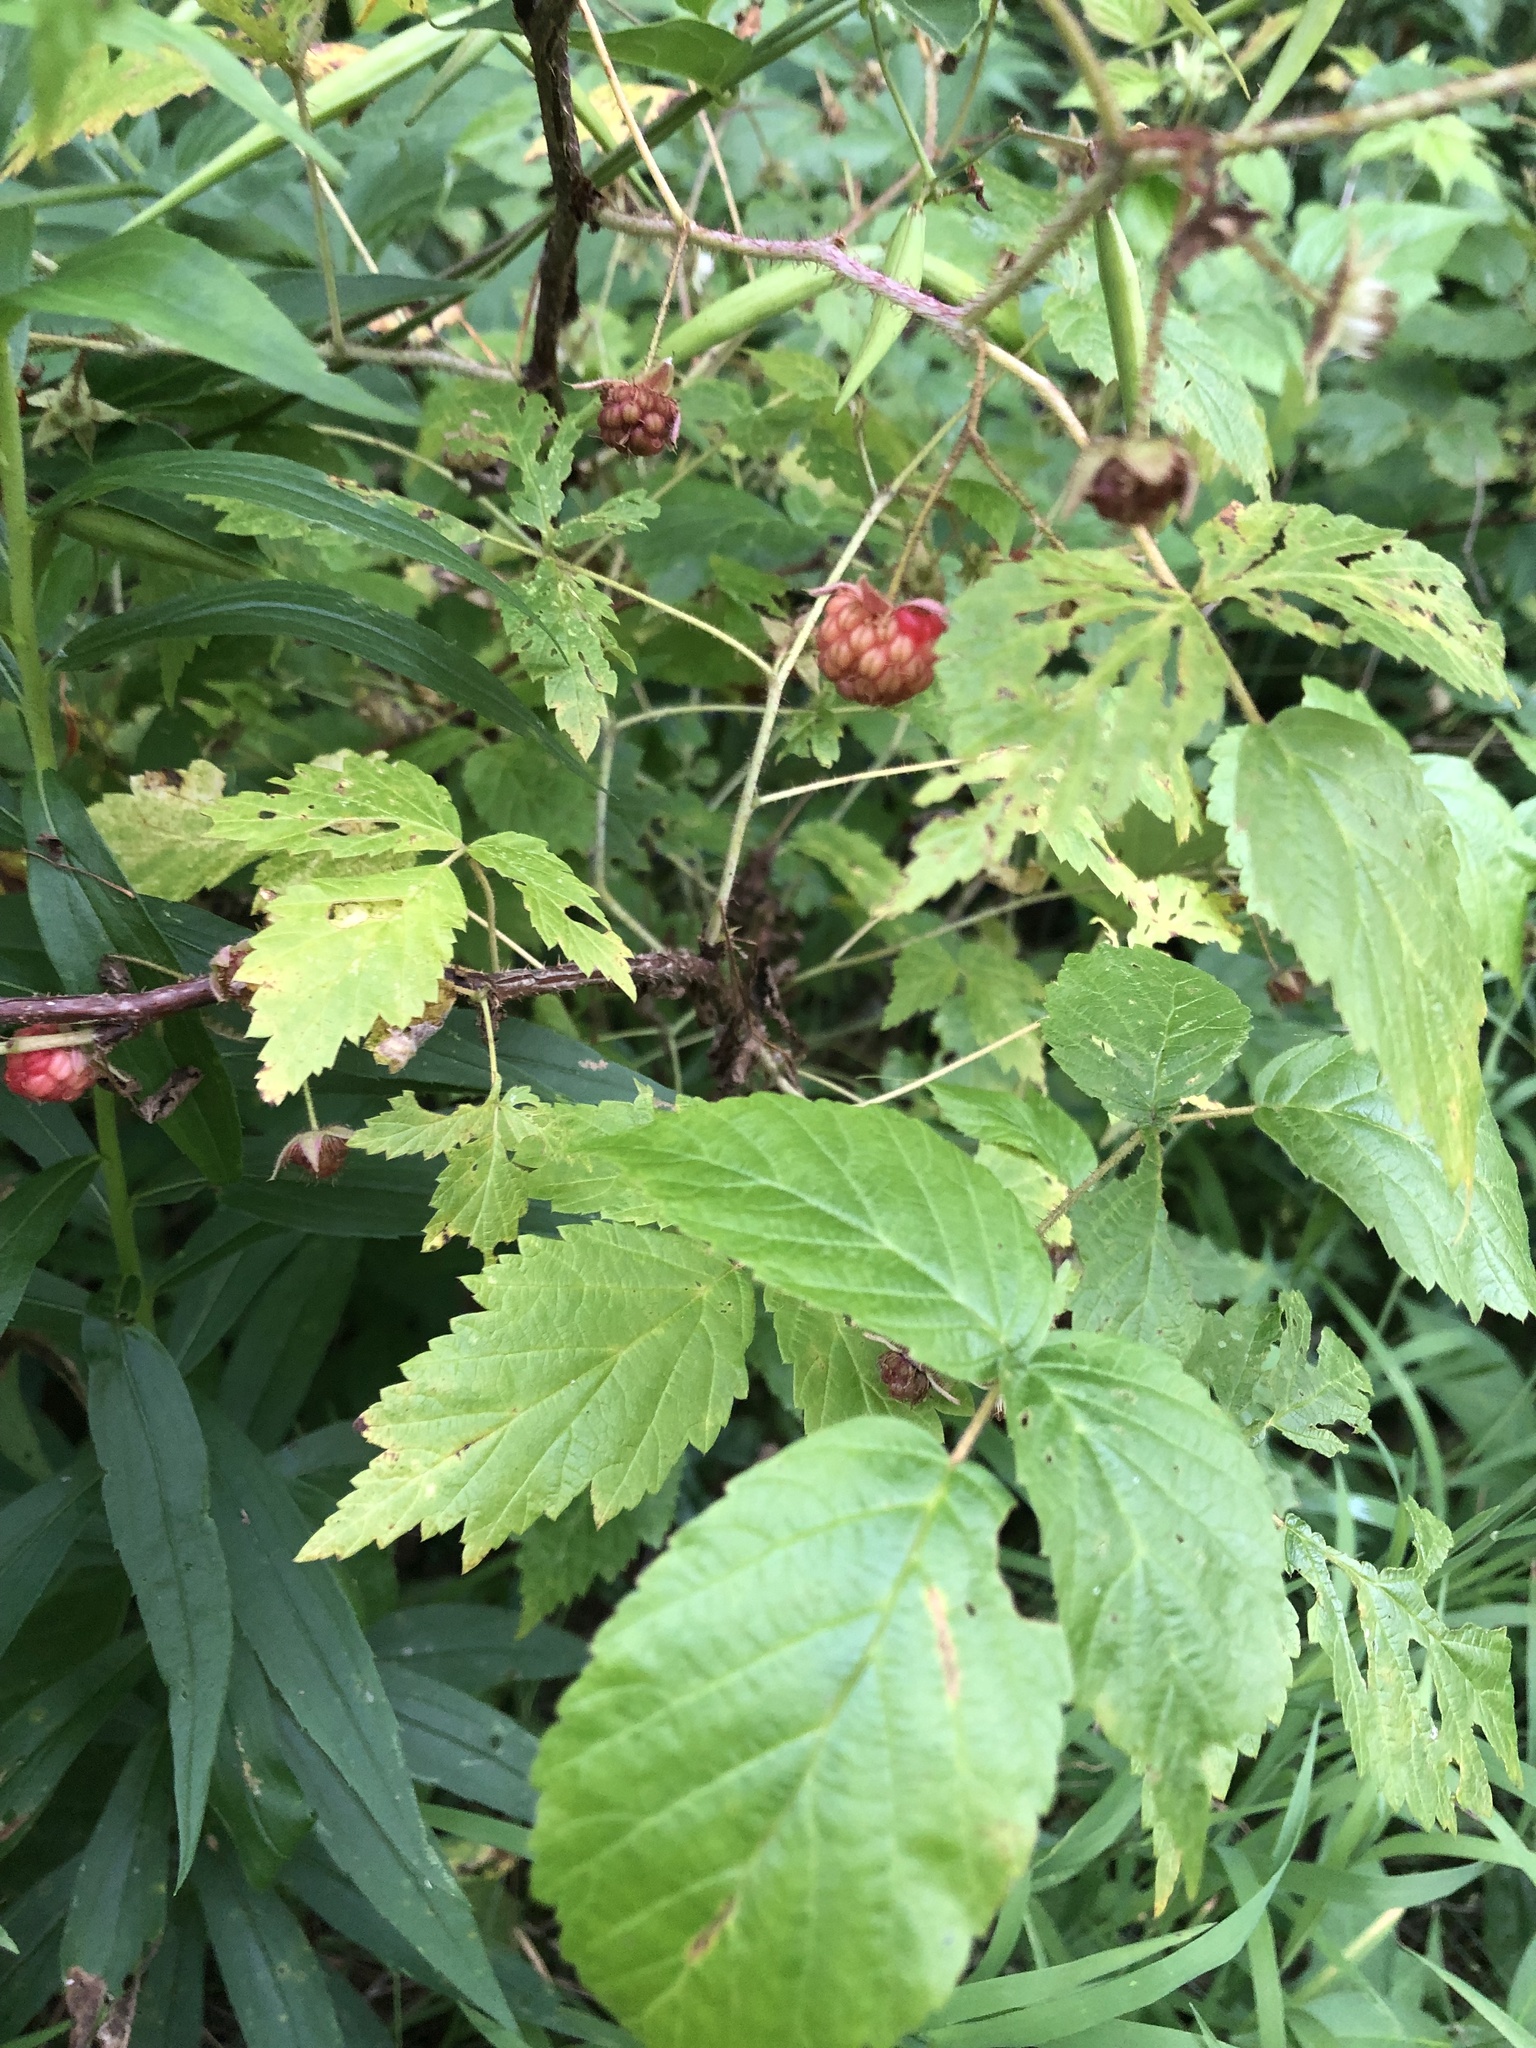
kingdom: Plantae
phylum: Tracheophyta
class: Magnoliopsida
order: Rosales
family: Rosaceae
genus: Rubus
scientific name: Rubus idaeus
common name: Raspberry
